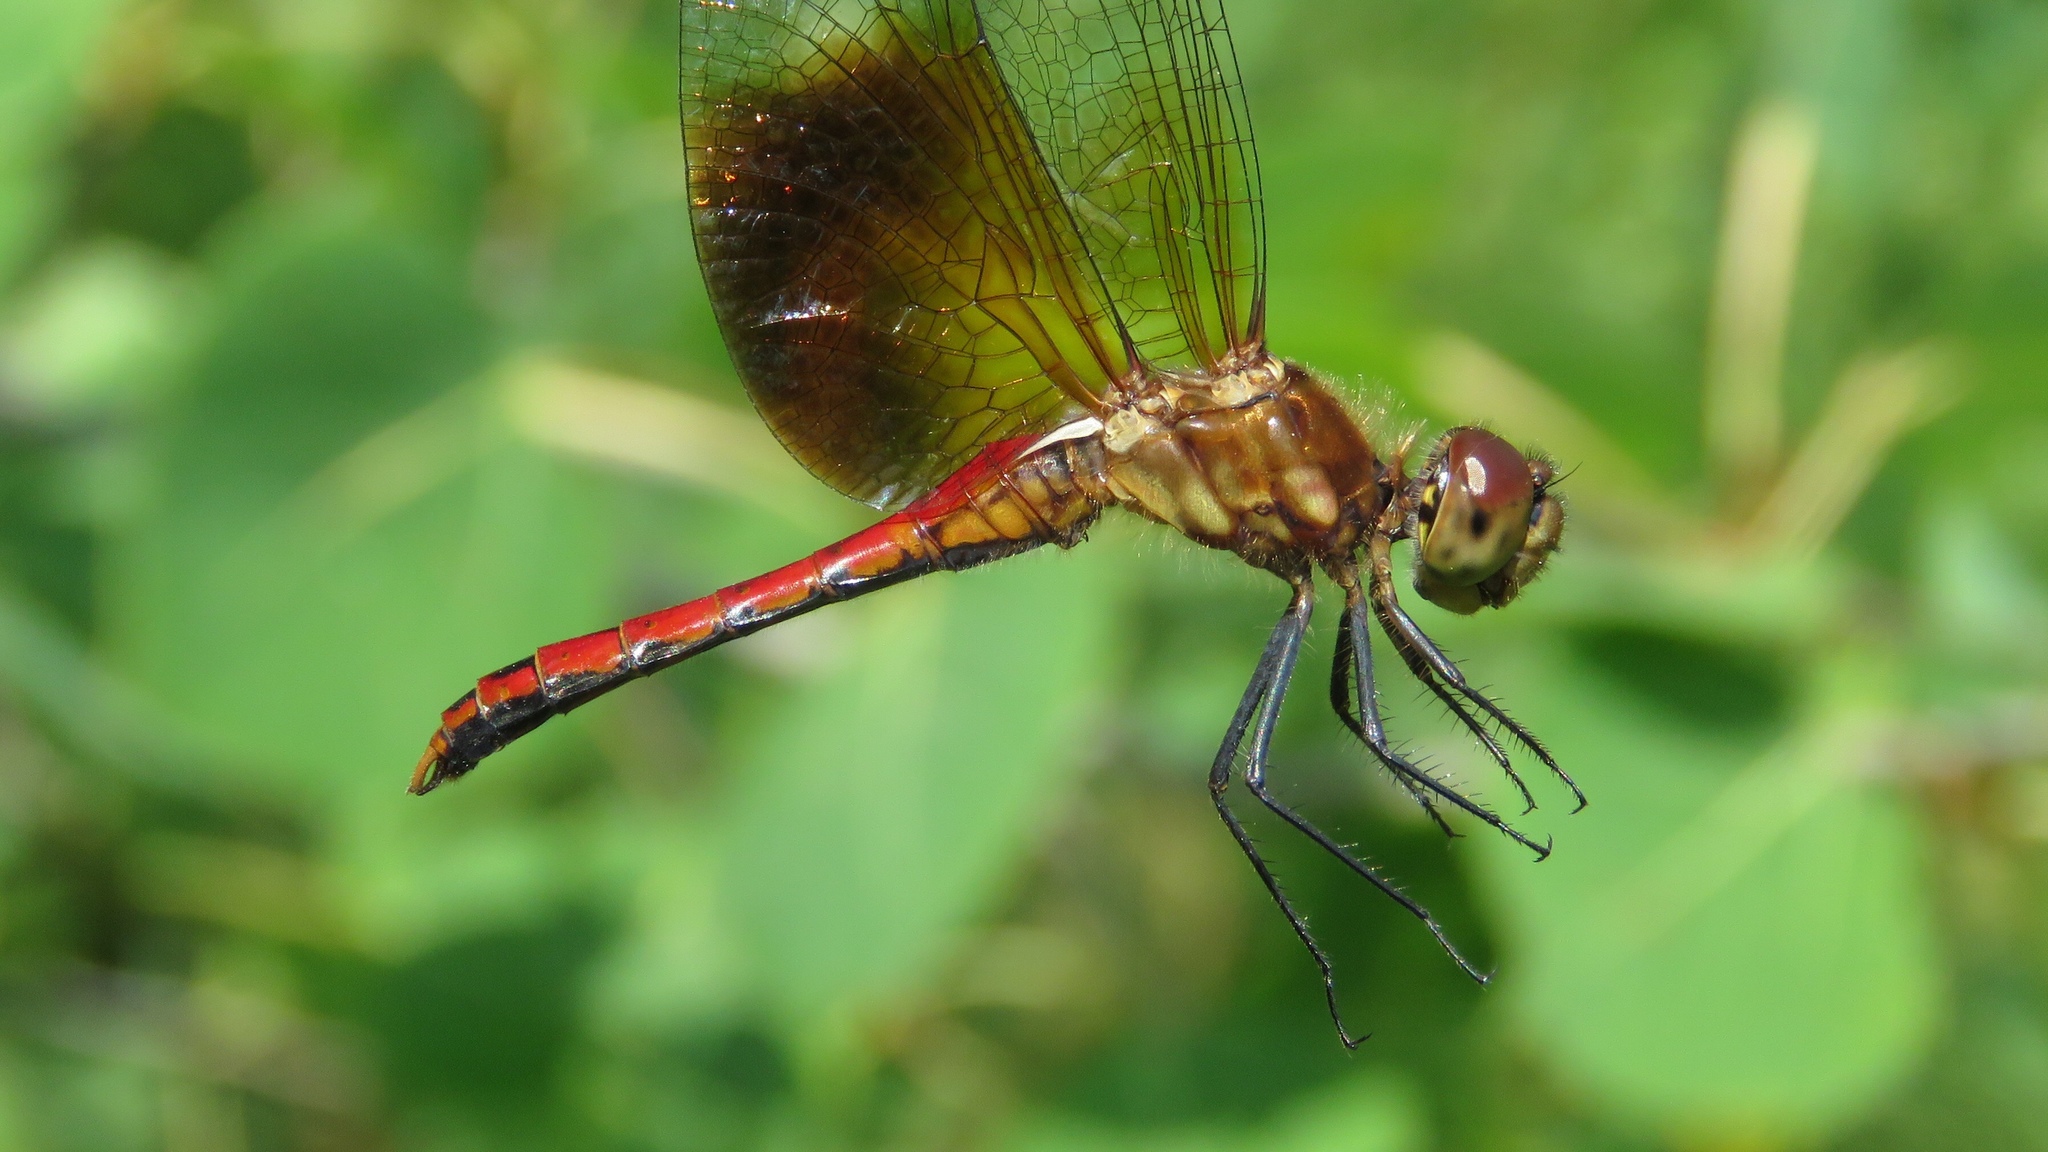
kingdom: Animalia
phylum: Arthropoda
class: Insecta
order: Odonata
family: Libellulidae
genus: Sympetrum
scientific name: Sympetrum semicinctum
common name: Band-winged meadowhawk
